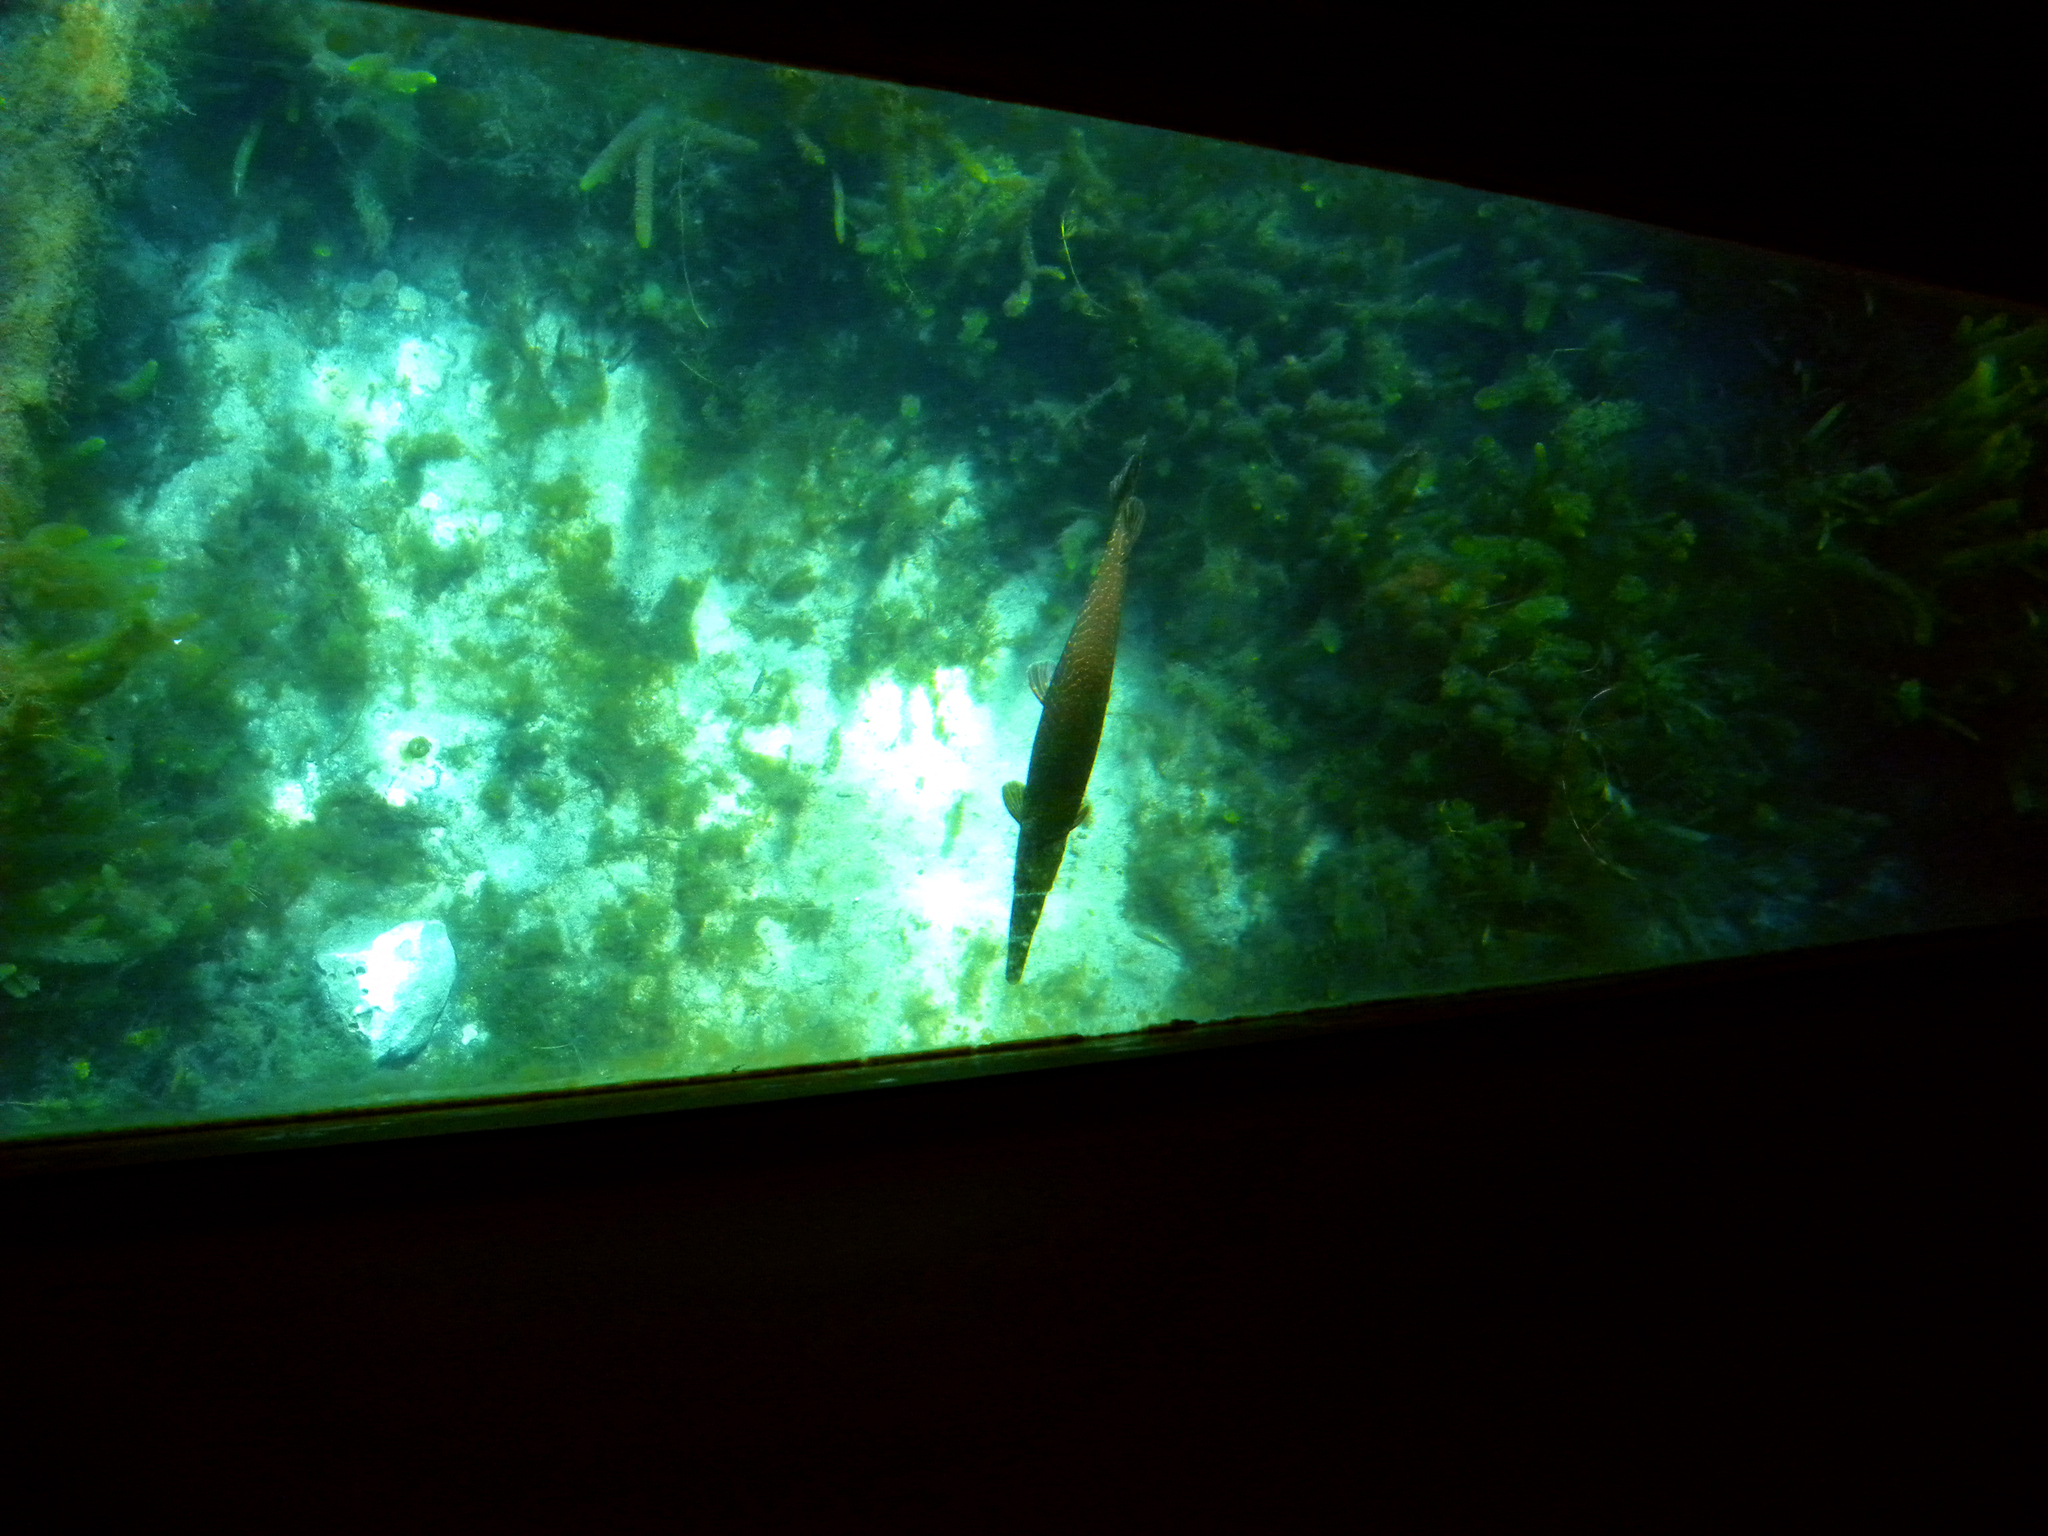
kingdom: Animalia
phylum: Chordata
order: Lepisosteiformes
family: Lepisosteidae
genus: Lepisosteus
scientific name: Lepisosteus oculatus
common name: Spotted gar
